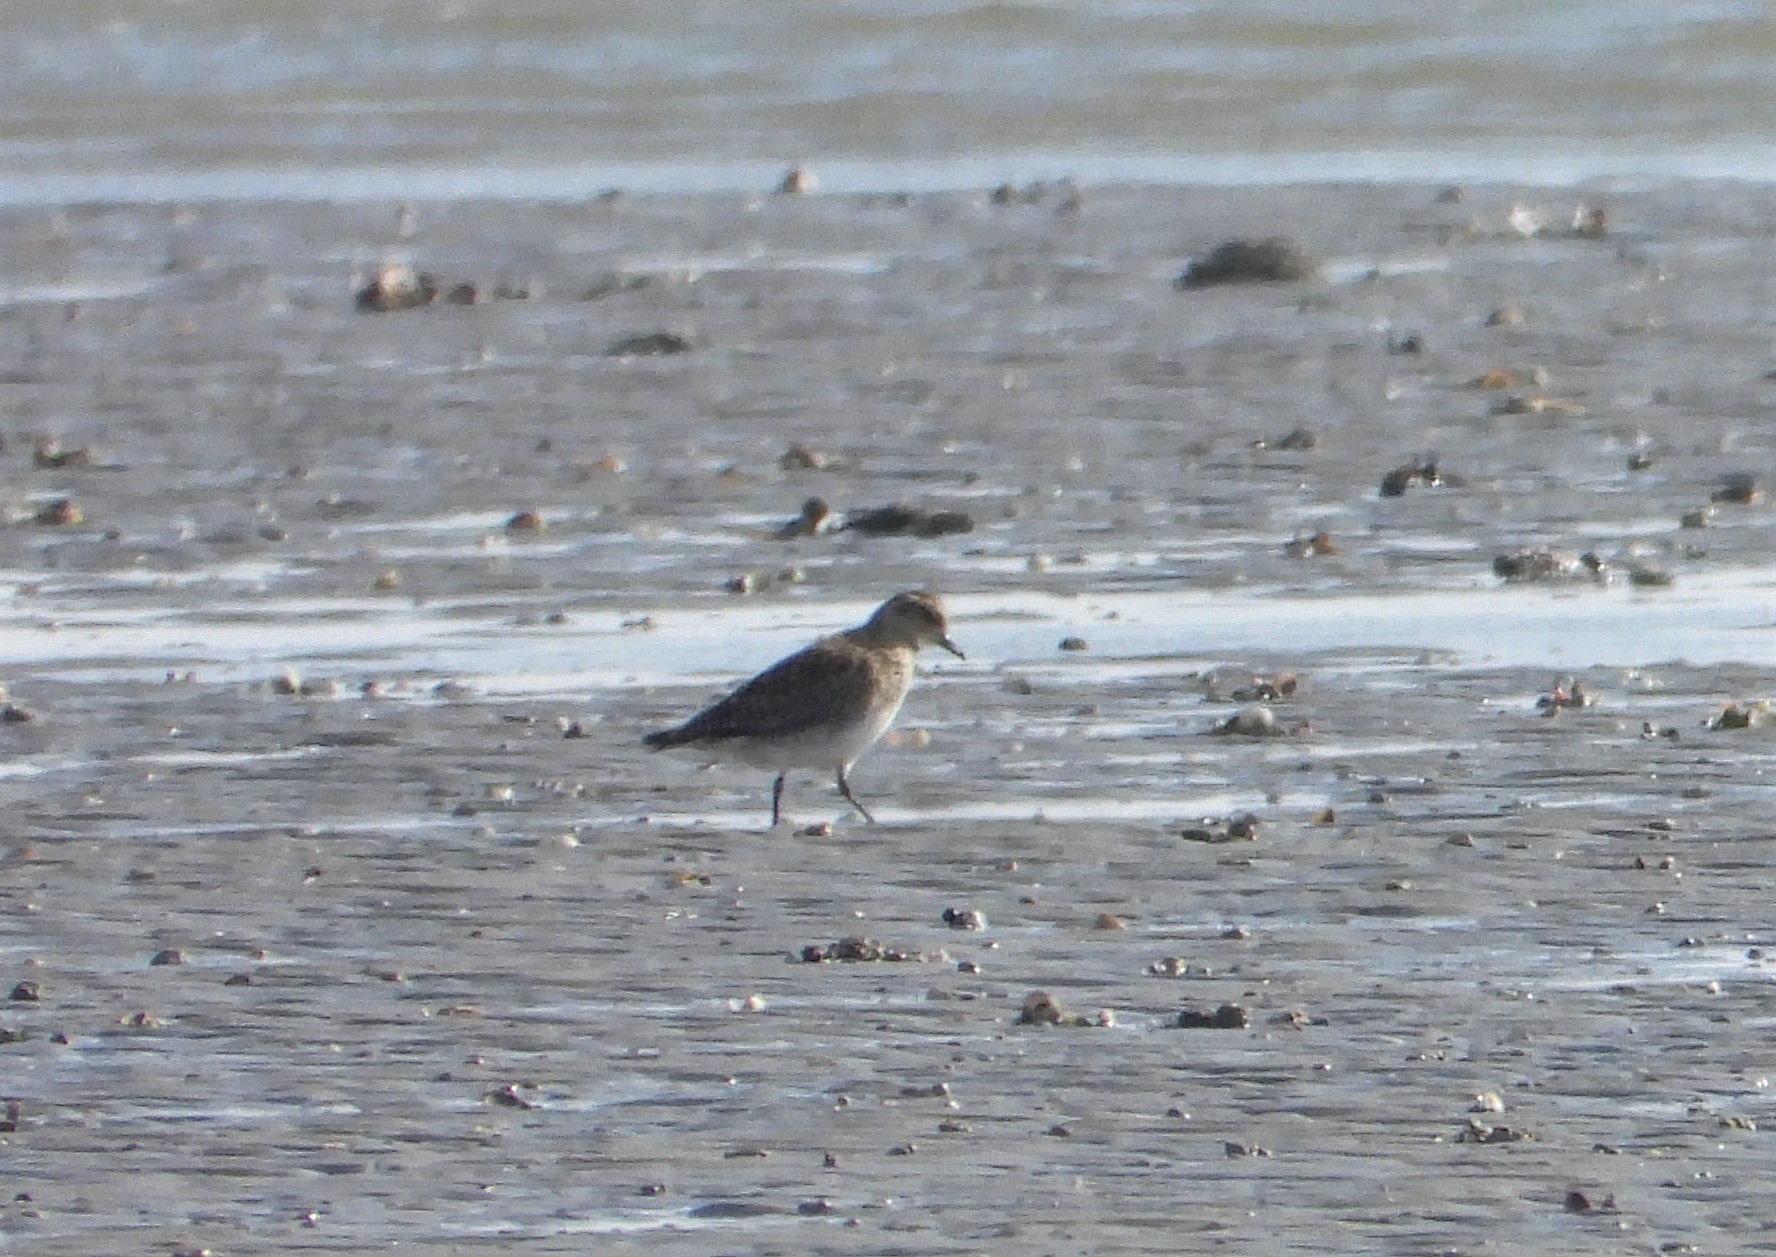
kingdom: Animalia
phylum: Chordata
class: Aves
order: Charadriiformes
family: Charadriidae
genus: Pluvialis
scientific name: Pluvialis apricaria
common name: European golden plover
